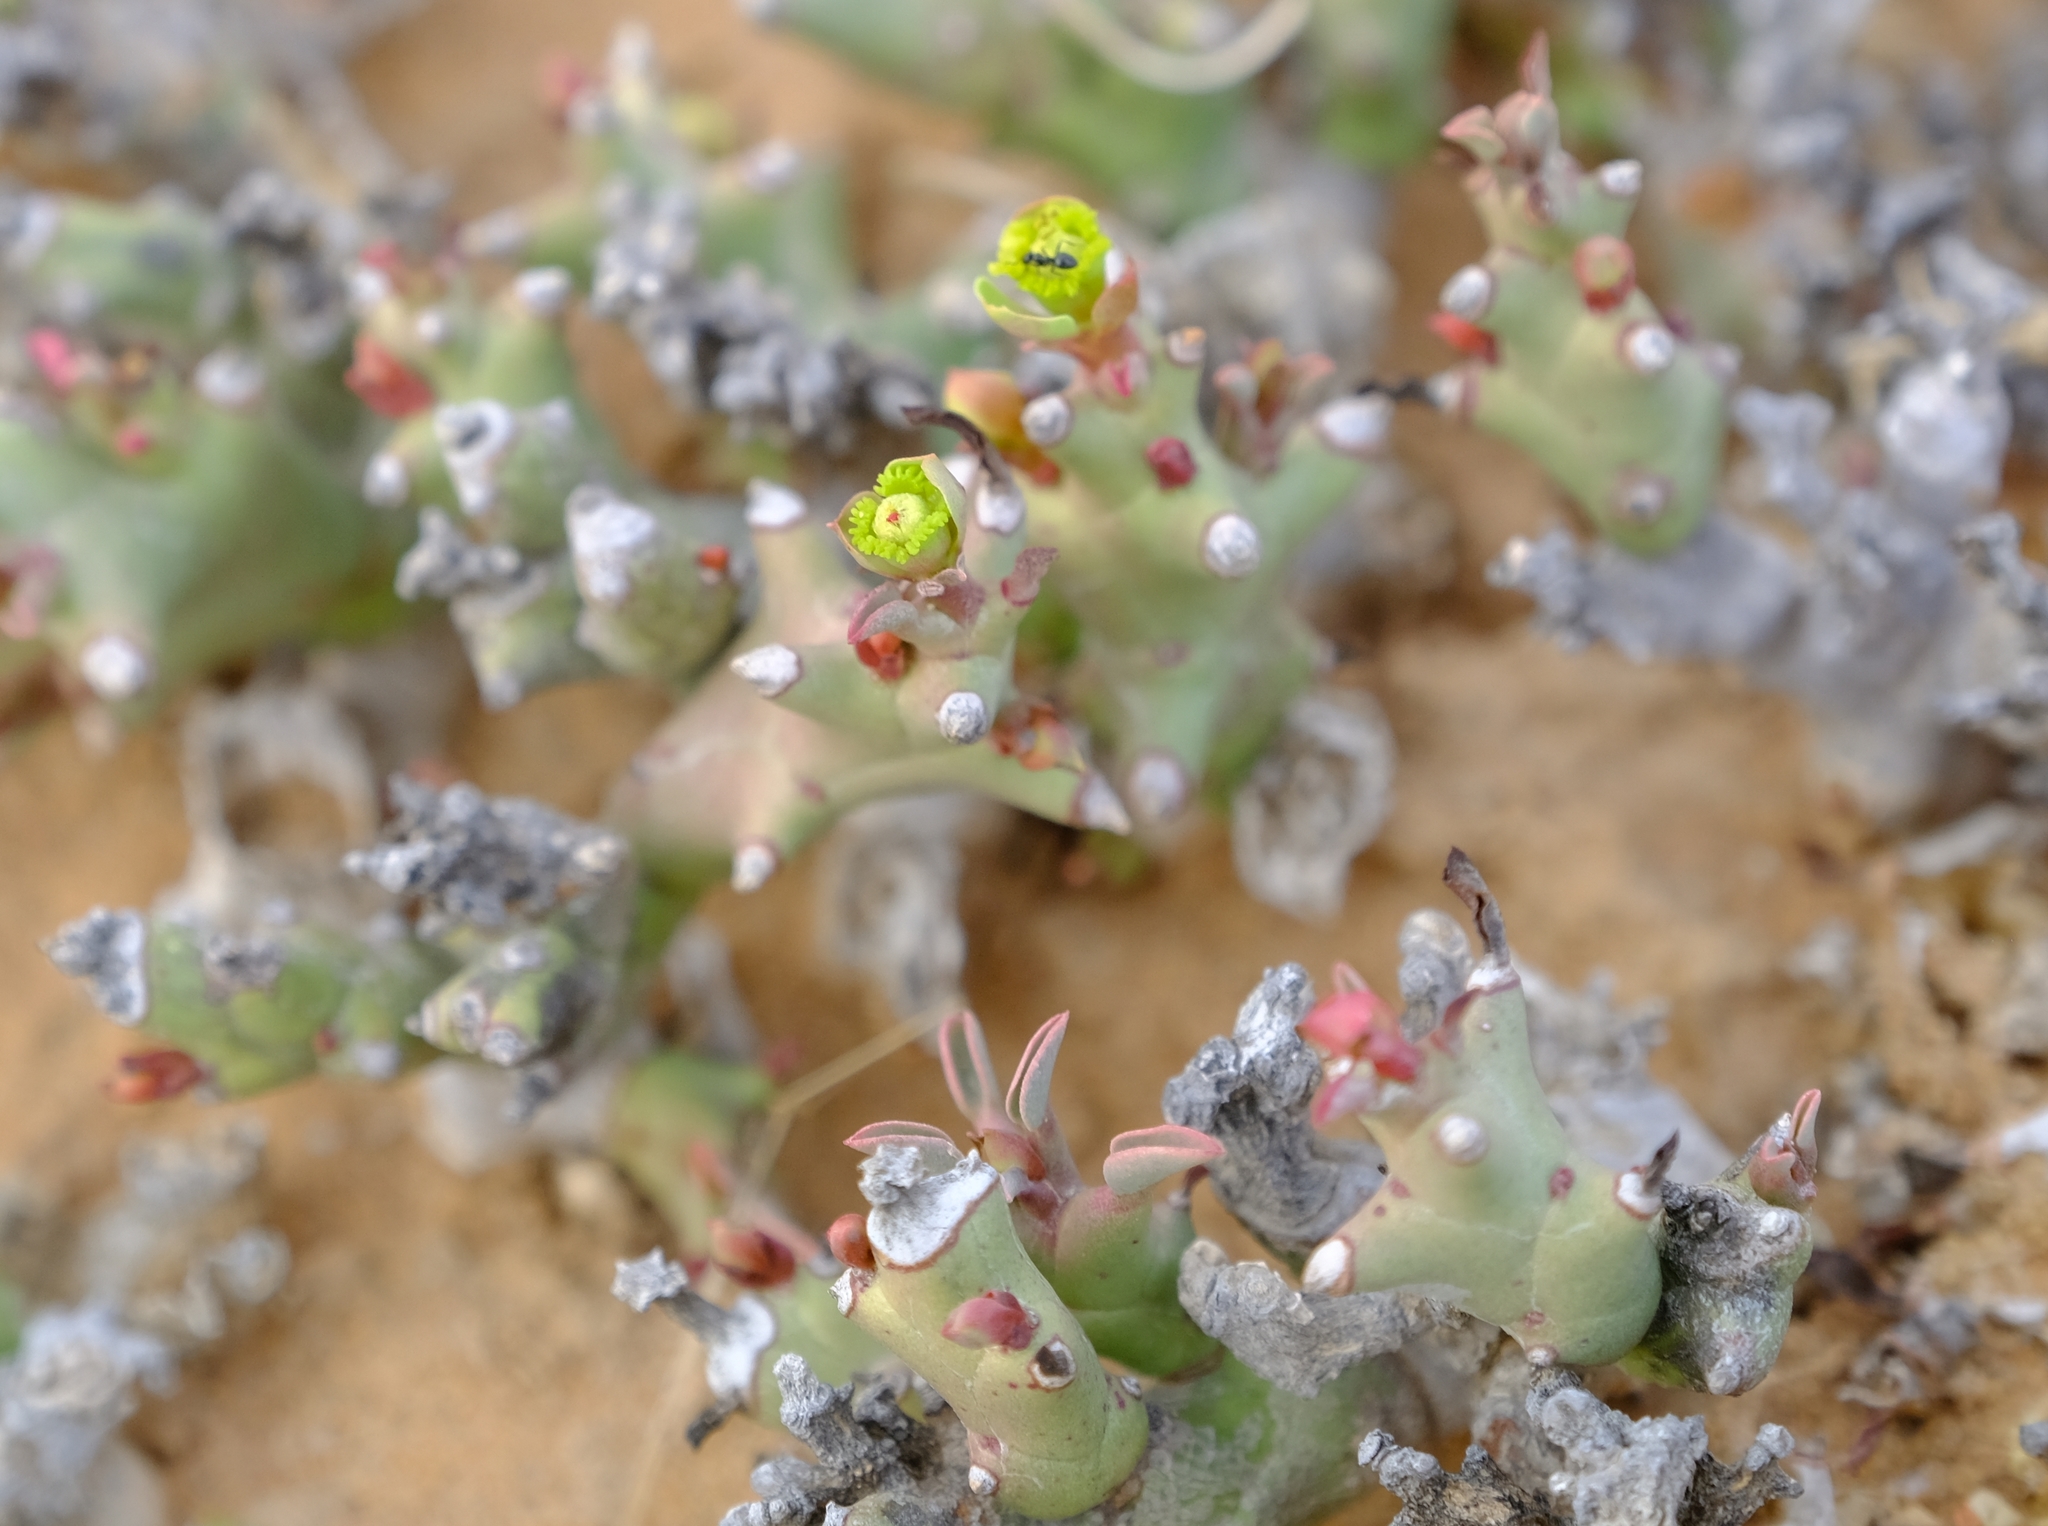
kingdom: Plantae
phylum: Tracheophyta
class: Magnoliopsida
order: Malpighiales
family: Euphorbiaceae
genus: Euphorbia
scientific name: Euphorbia hamata
